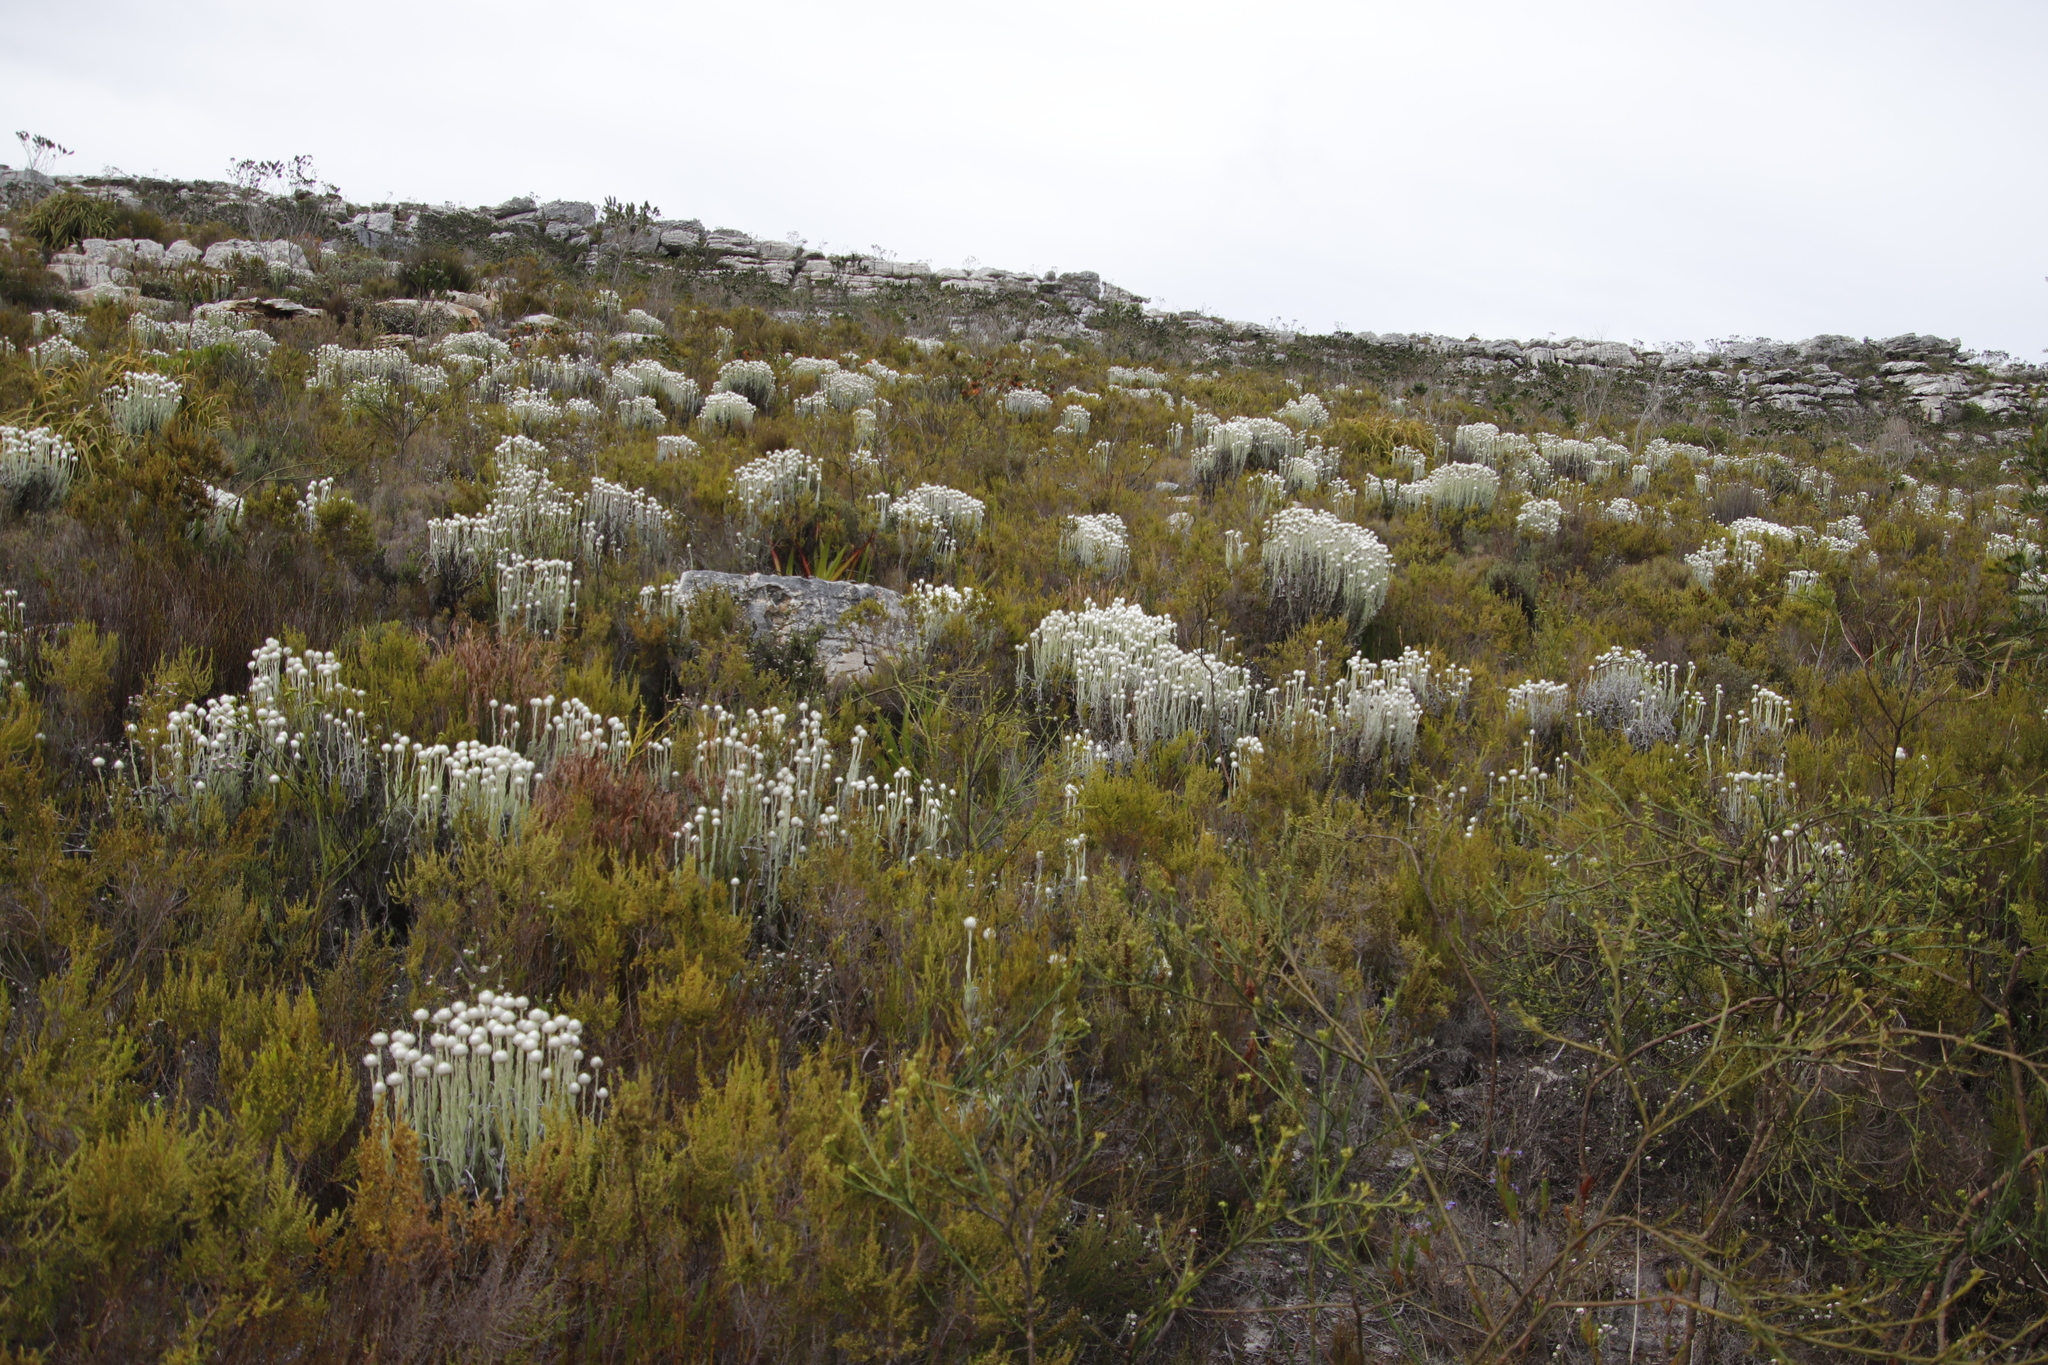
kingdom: Plantae
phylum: Tracheophyta
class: Magnoliopsida
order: Asterales
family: Asteraceae
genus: Syncarpha
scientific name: Syncarpha vestita
